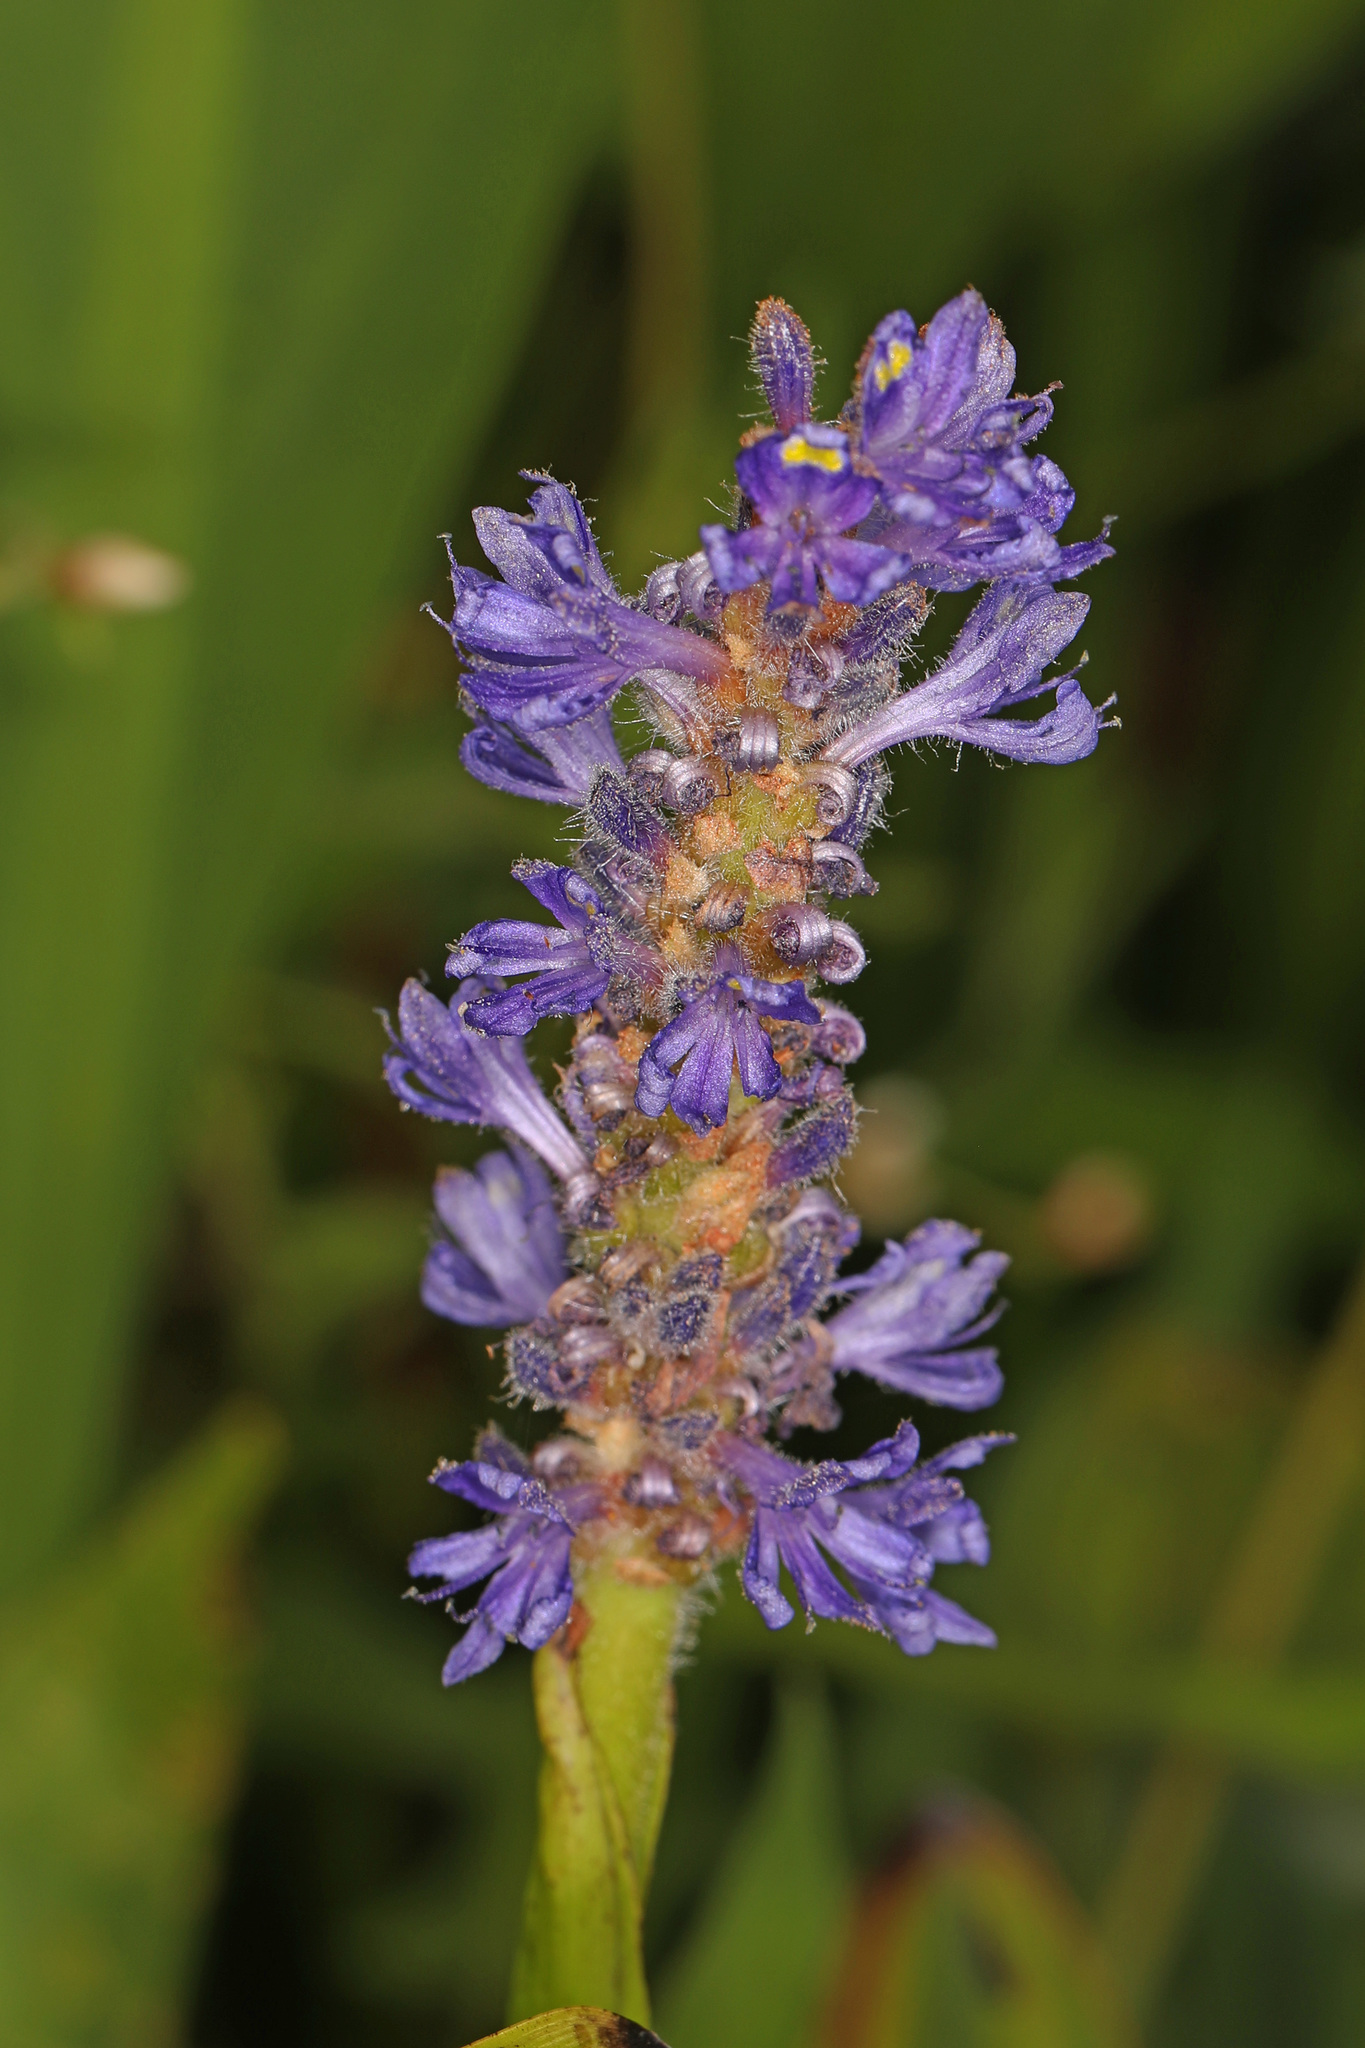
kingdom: Plantae
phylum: Tracheophyta
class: Liliopsida
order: Commelinales
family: Pontederiaceae
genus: Pontederia
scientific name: Pontederia cordata
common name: Pickerelweed
